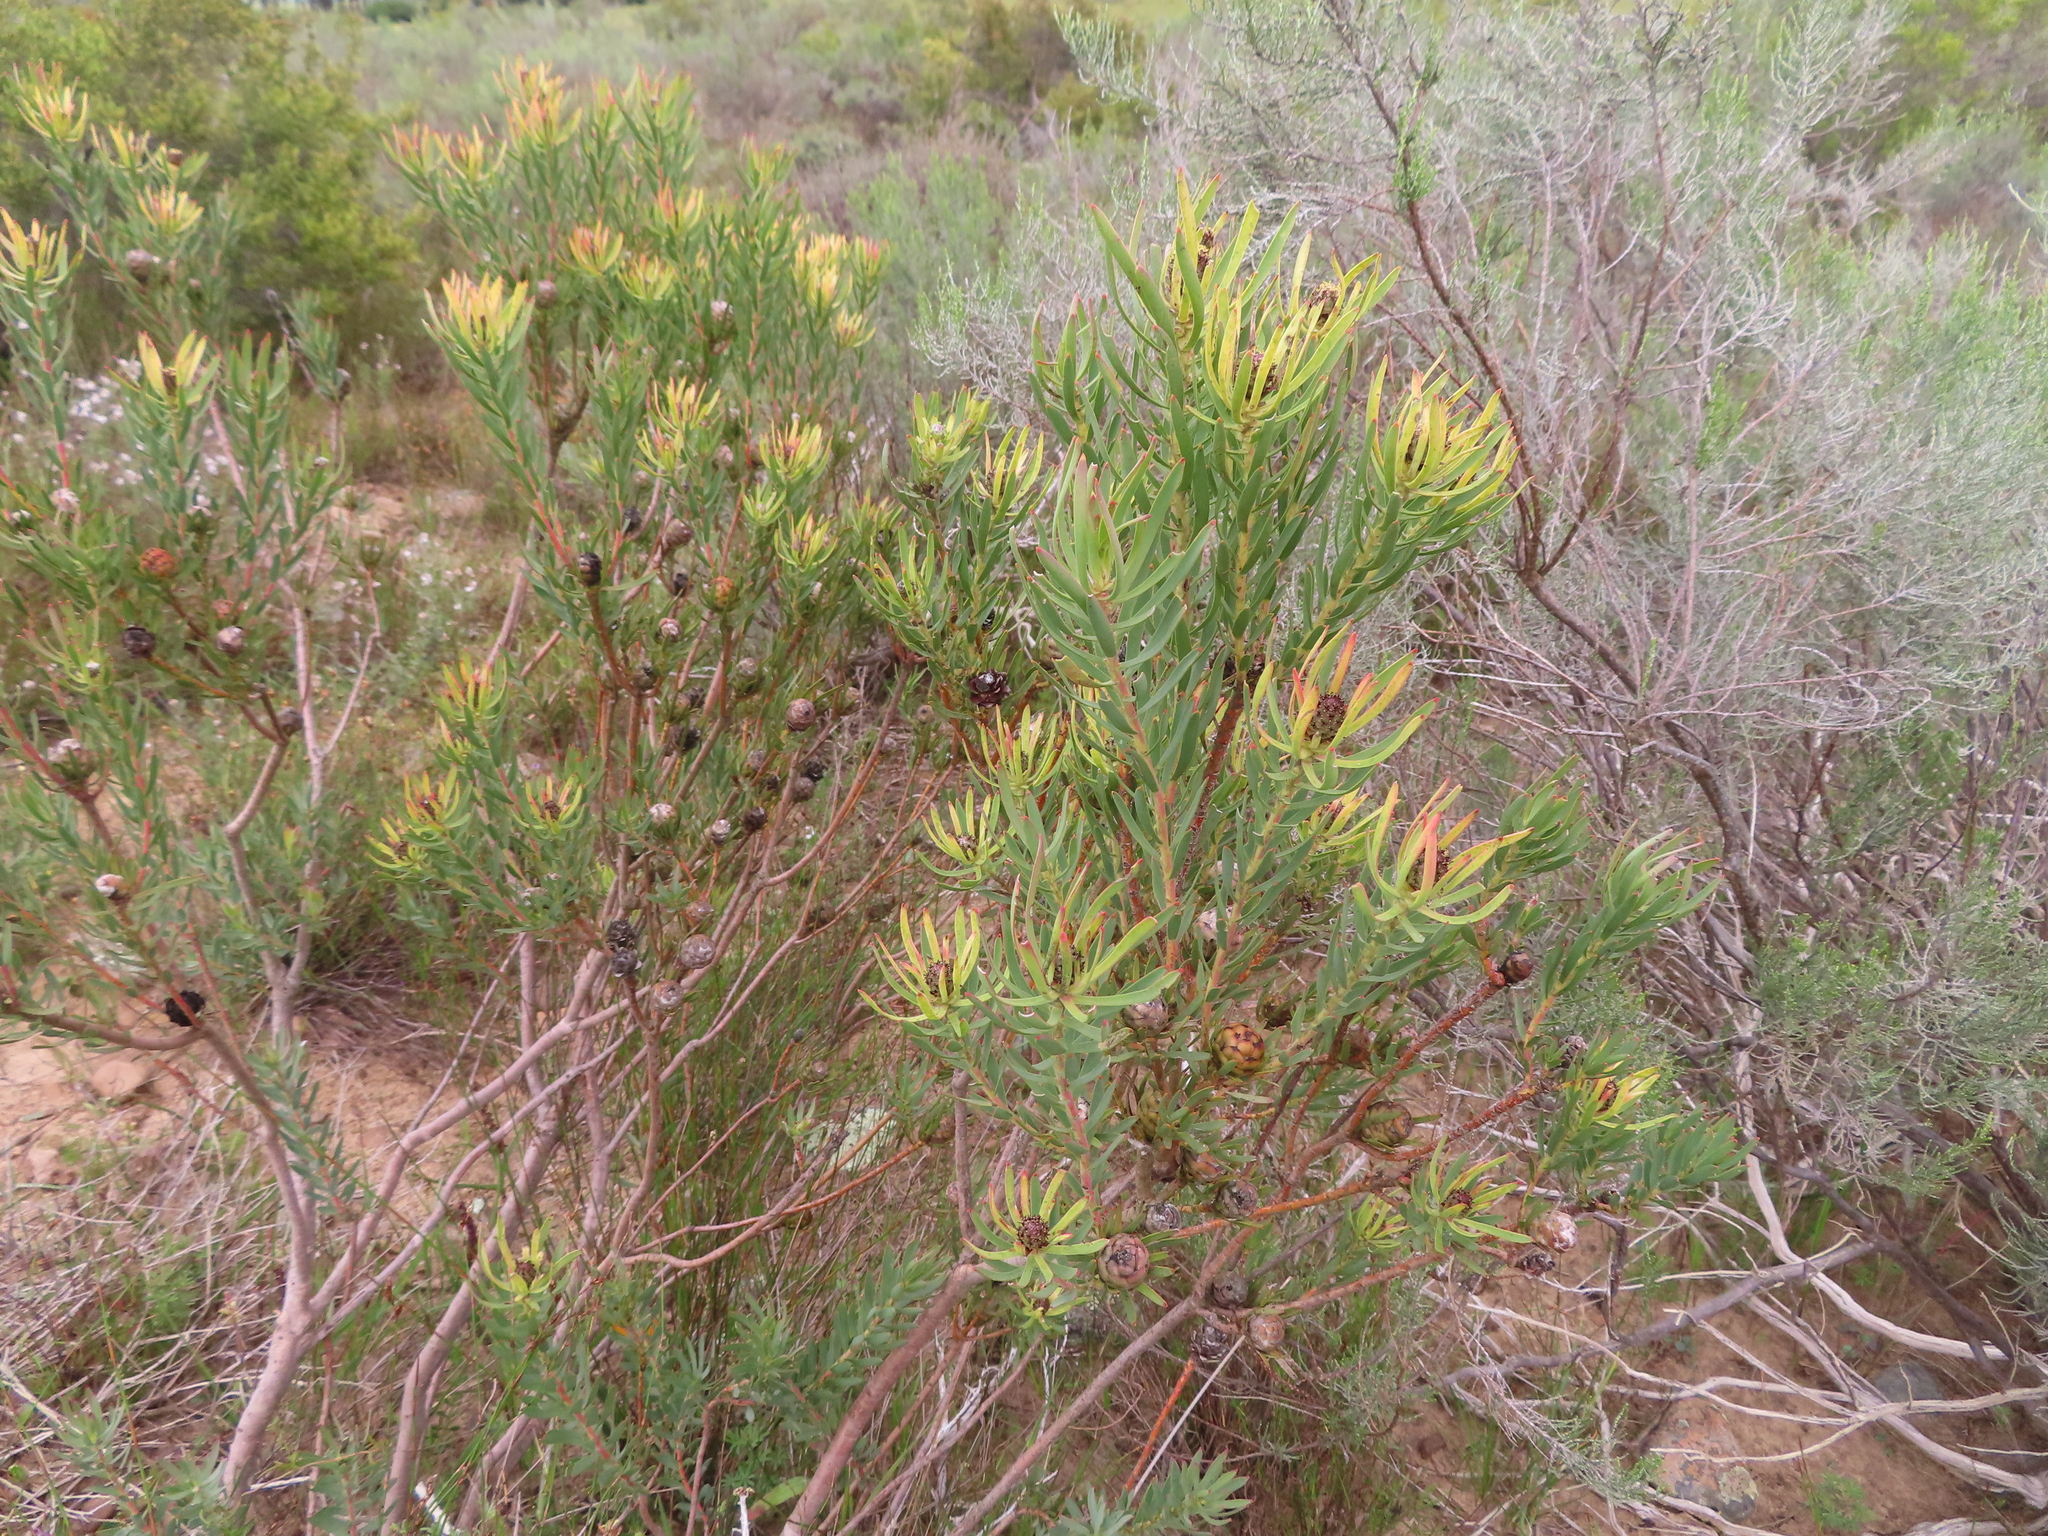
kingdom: Plantae
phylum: Tracheophyta
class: Magnoliopsida
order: Proteales
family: Proteaceae
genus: Leucadendron
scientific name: Leucadendron lanigerum
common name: Shale conebush
